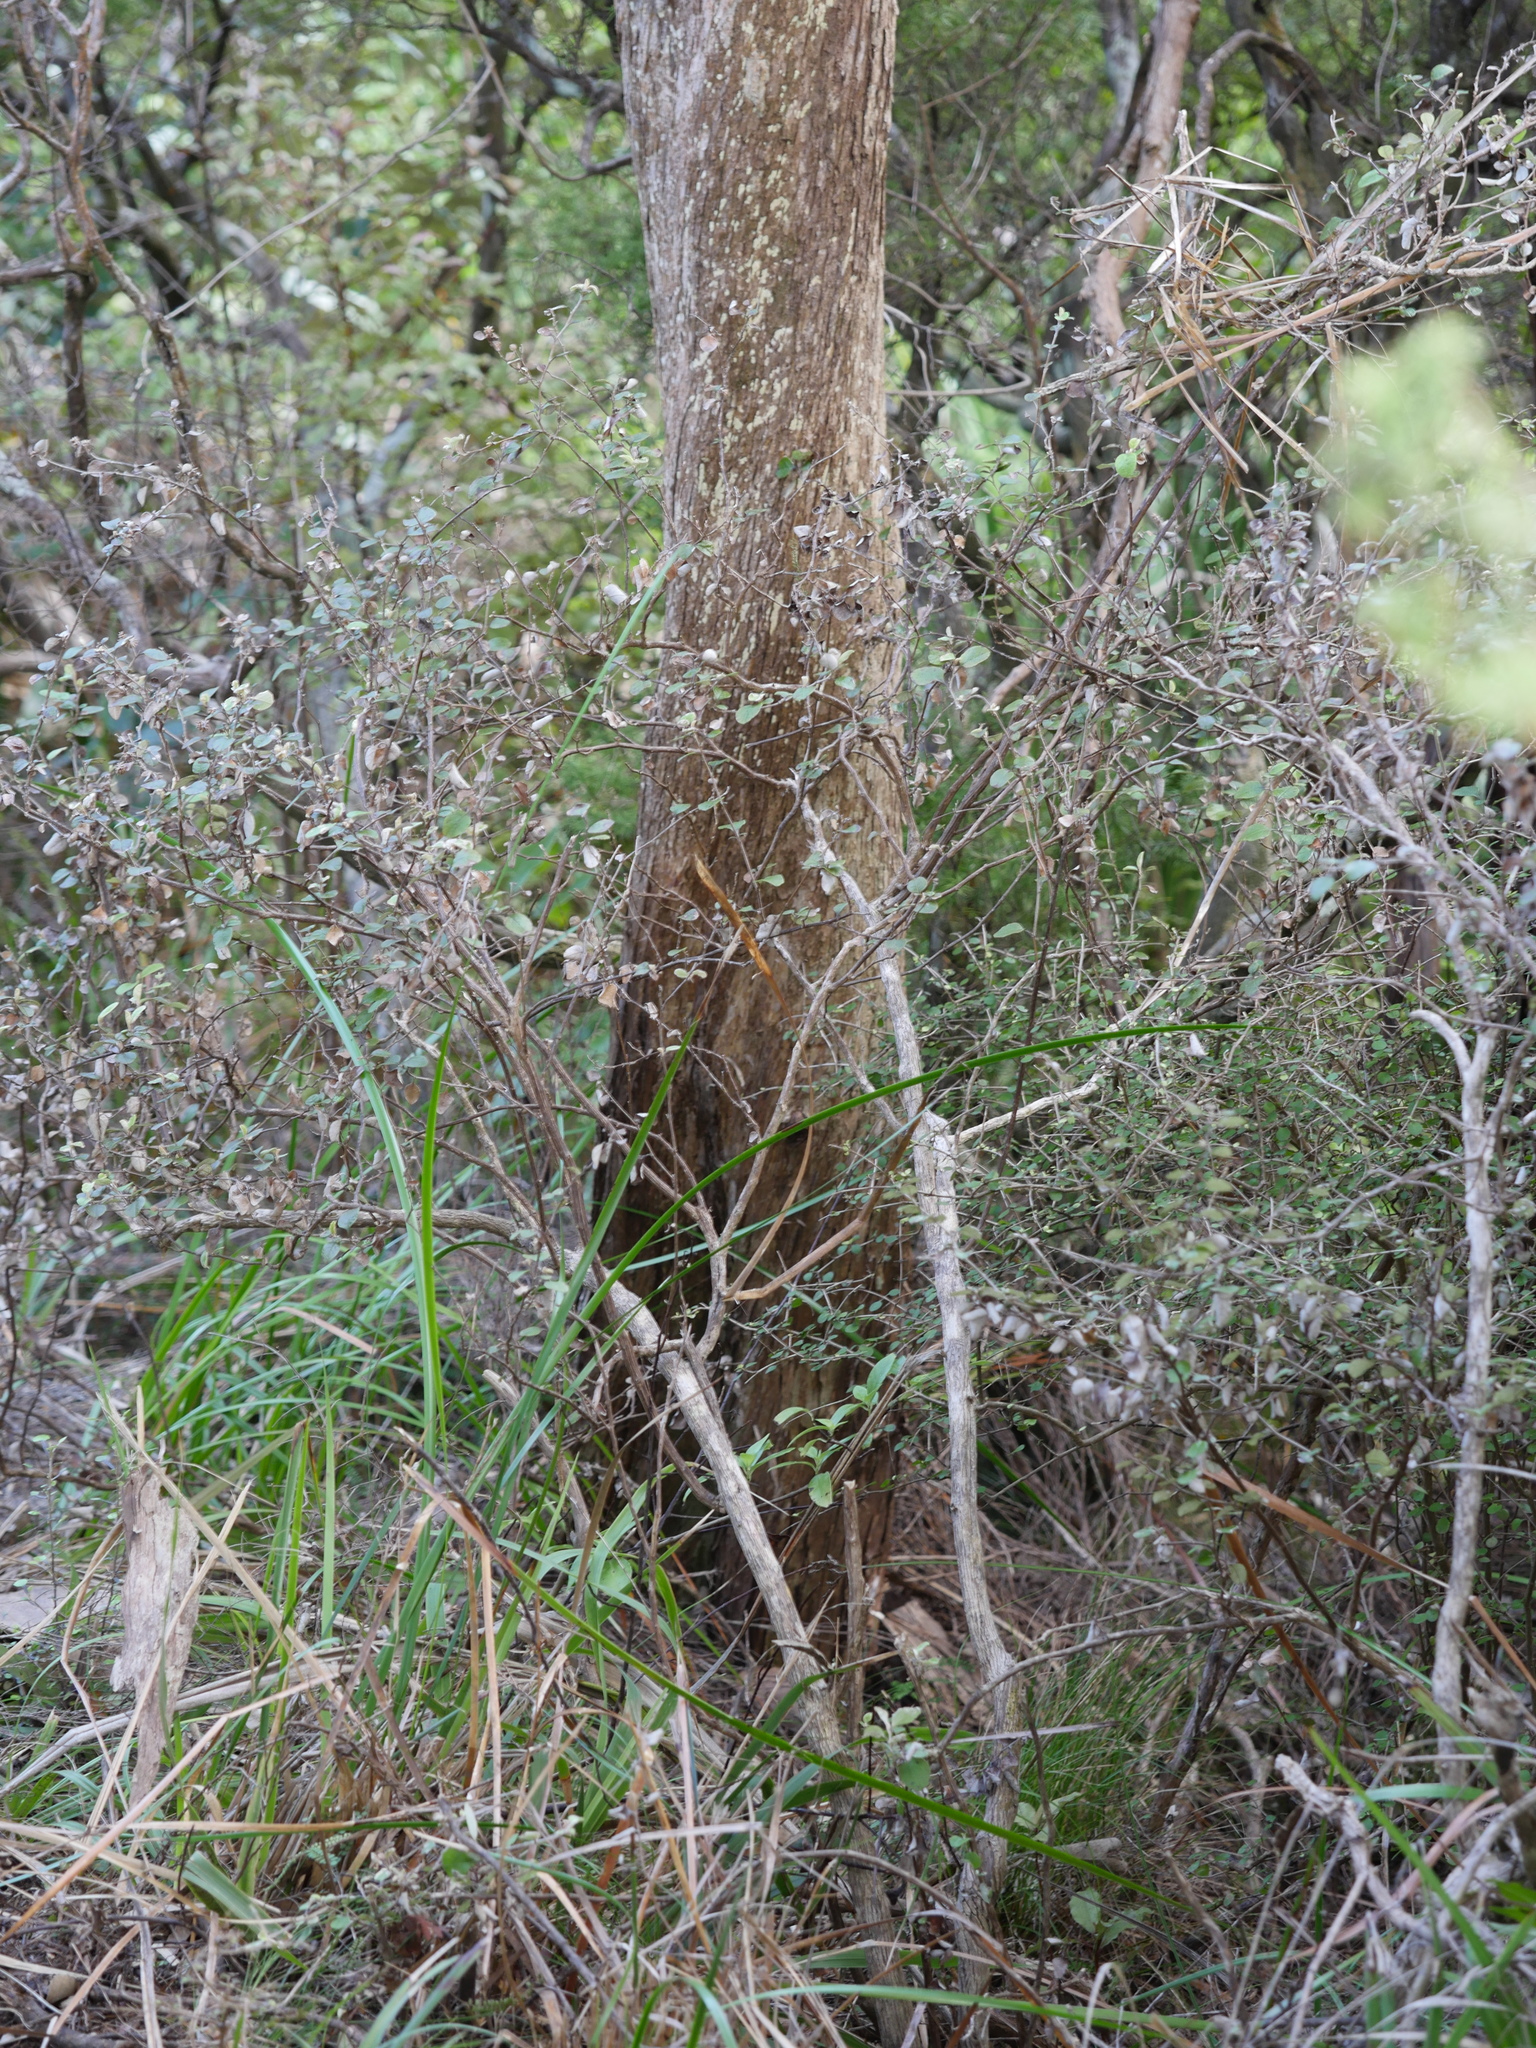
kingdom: Plantae
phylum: Tracheophyta
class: Magnoliopsida
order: Asterales
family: Asteraceae
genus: Ozothamnus
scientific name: Ozothamnus glomeratus
